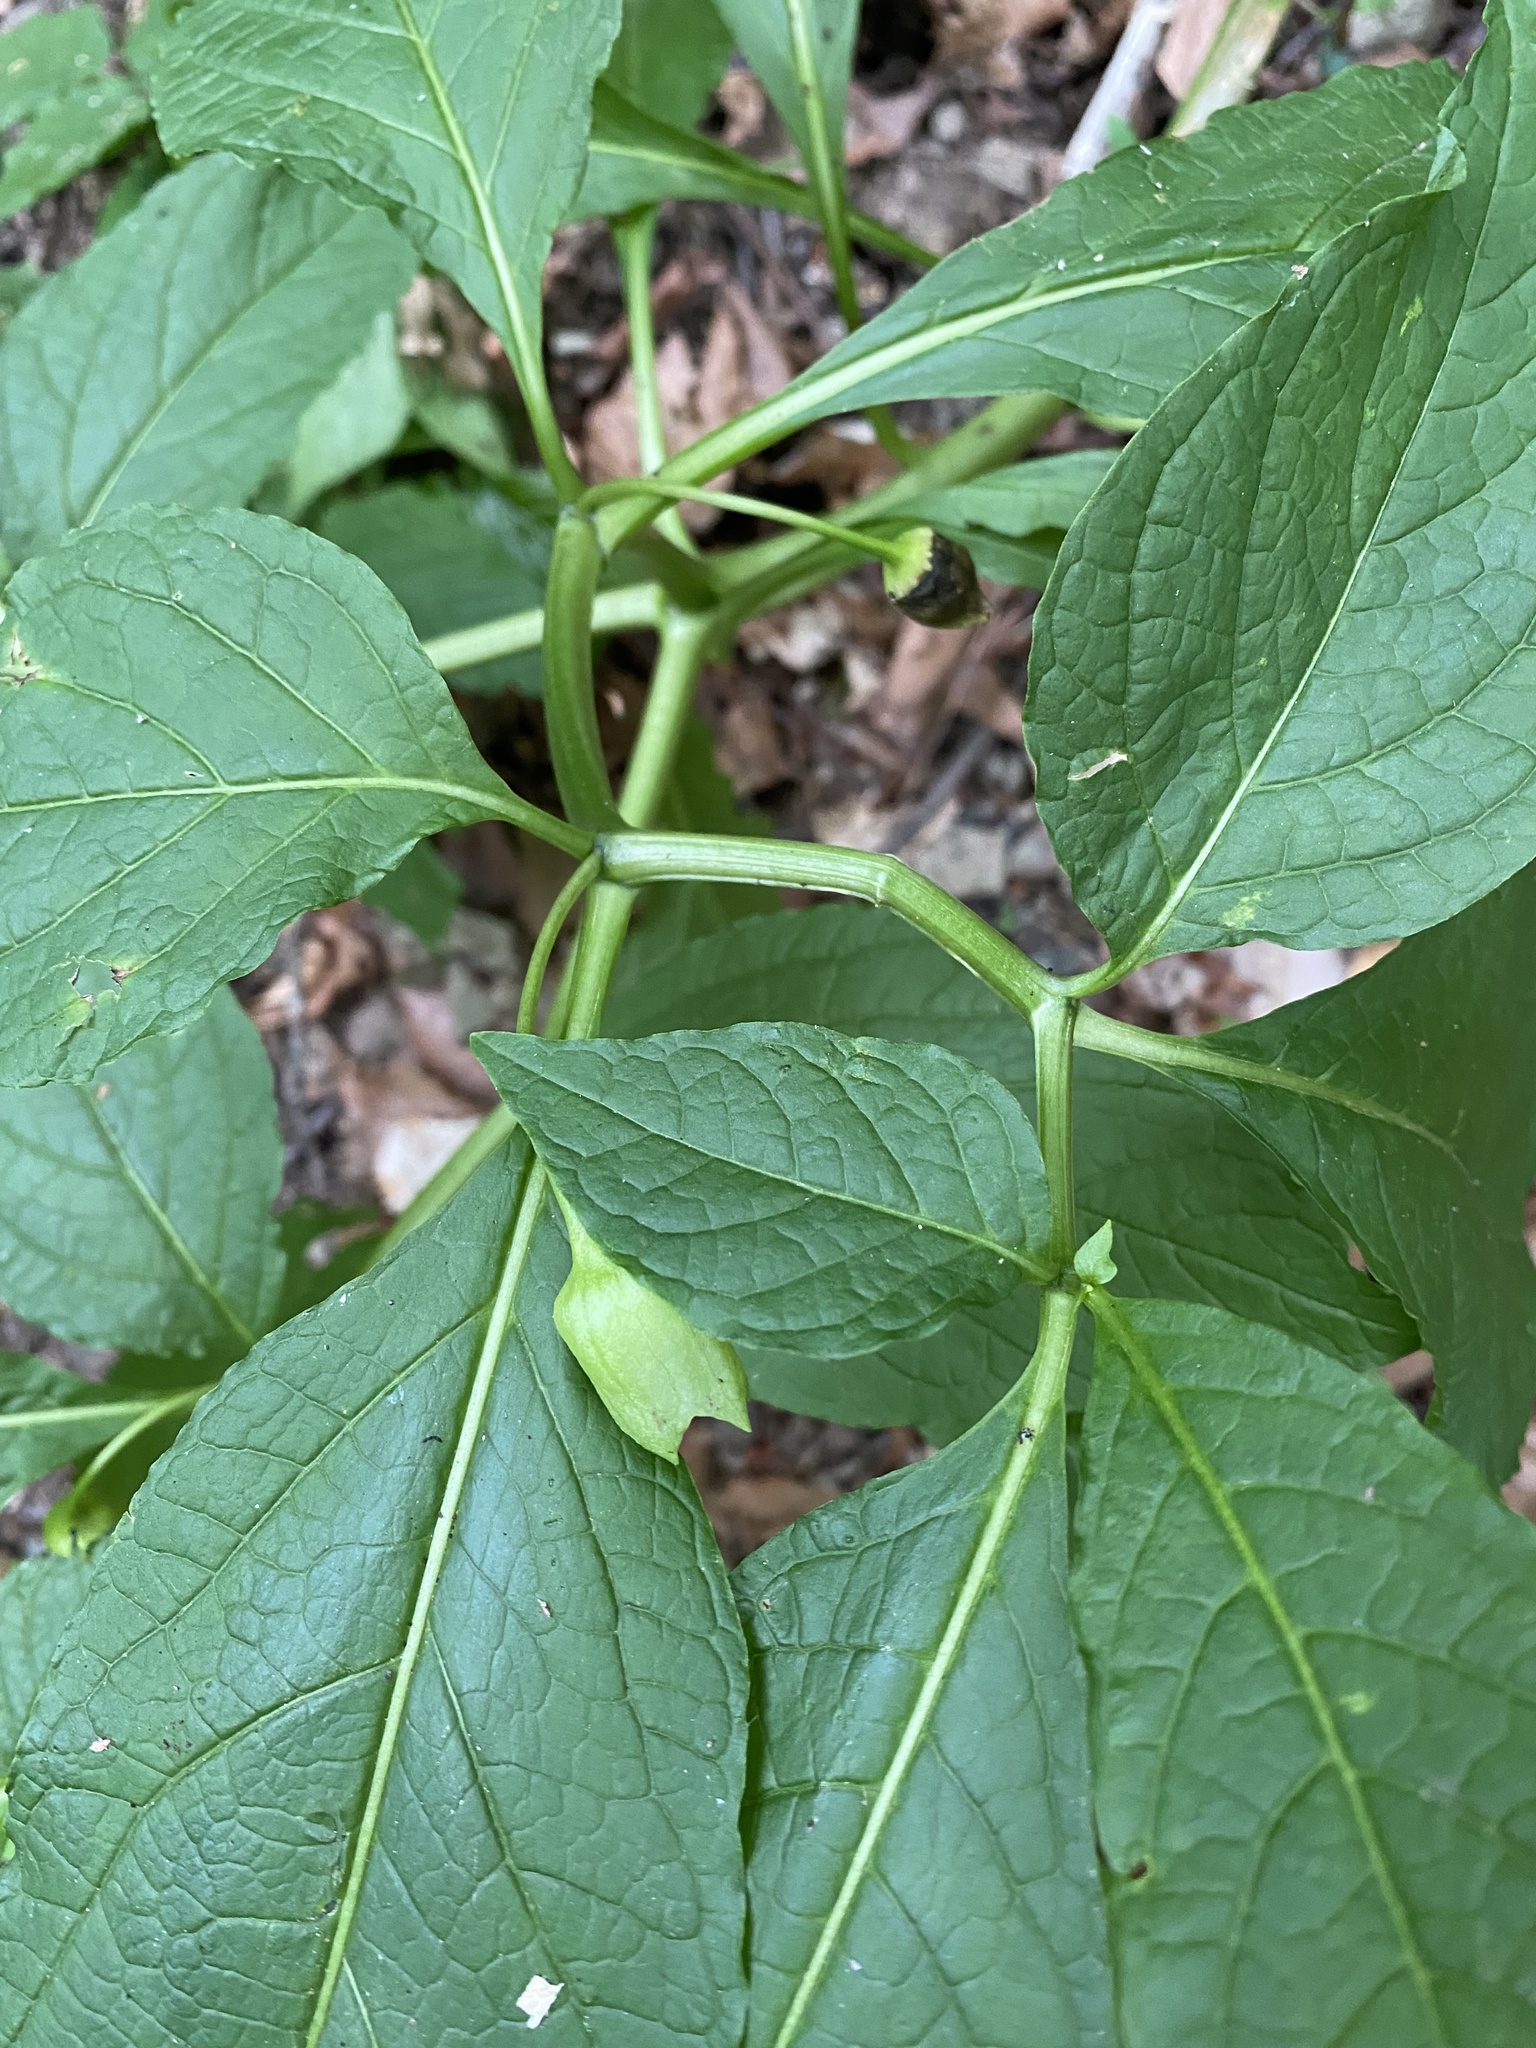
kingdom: Plantae
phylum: Tracheophyta
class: Magnoliopsida
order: Solanales
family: Solanaceae
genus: Scopolia
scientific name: Scopolia carniolica
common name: Scopolia
